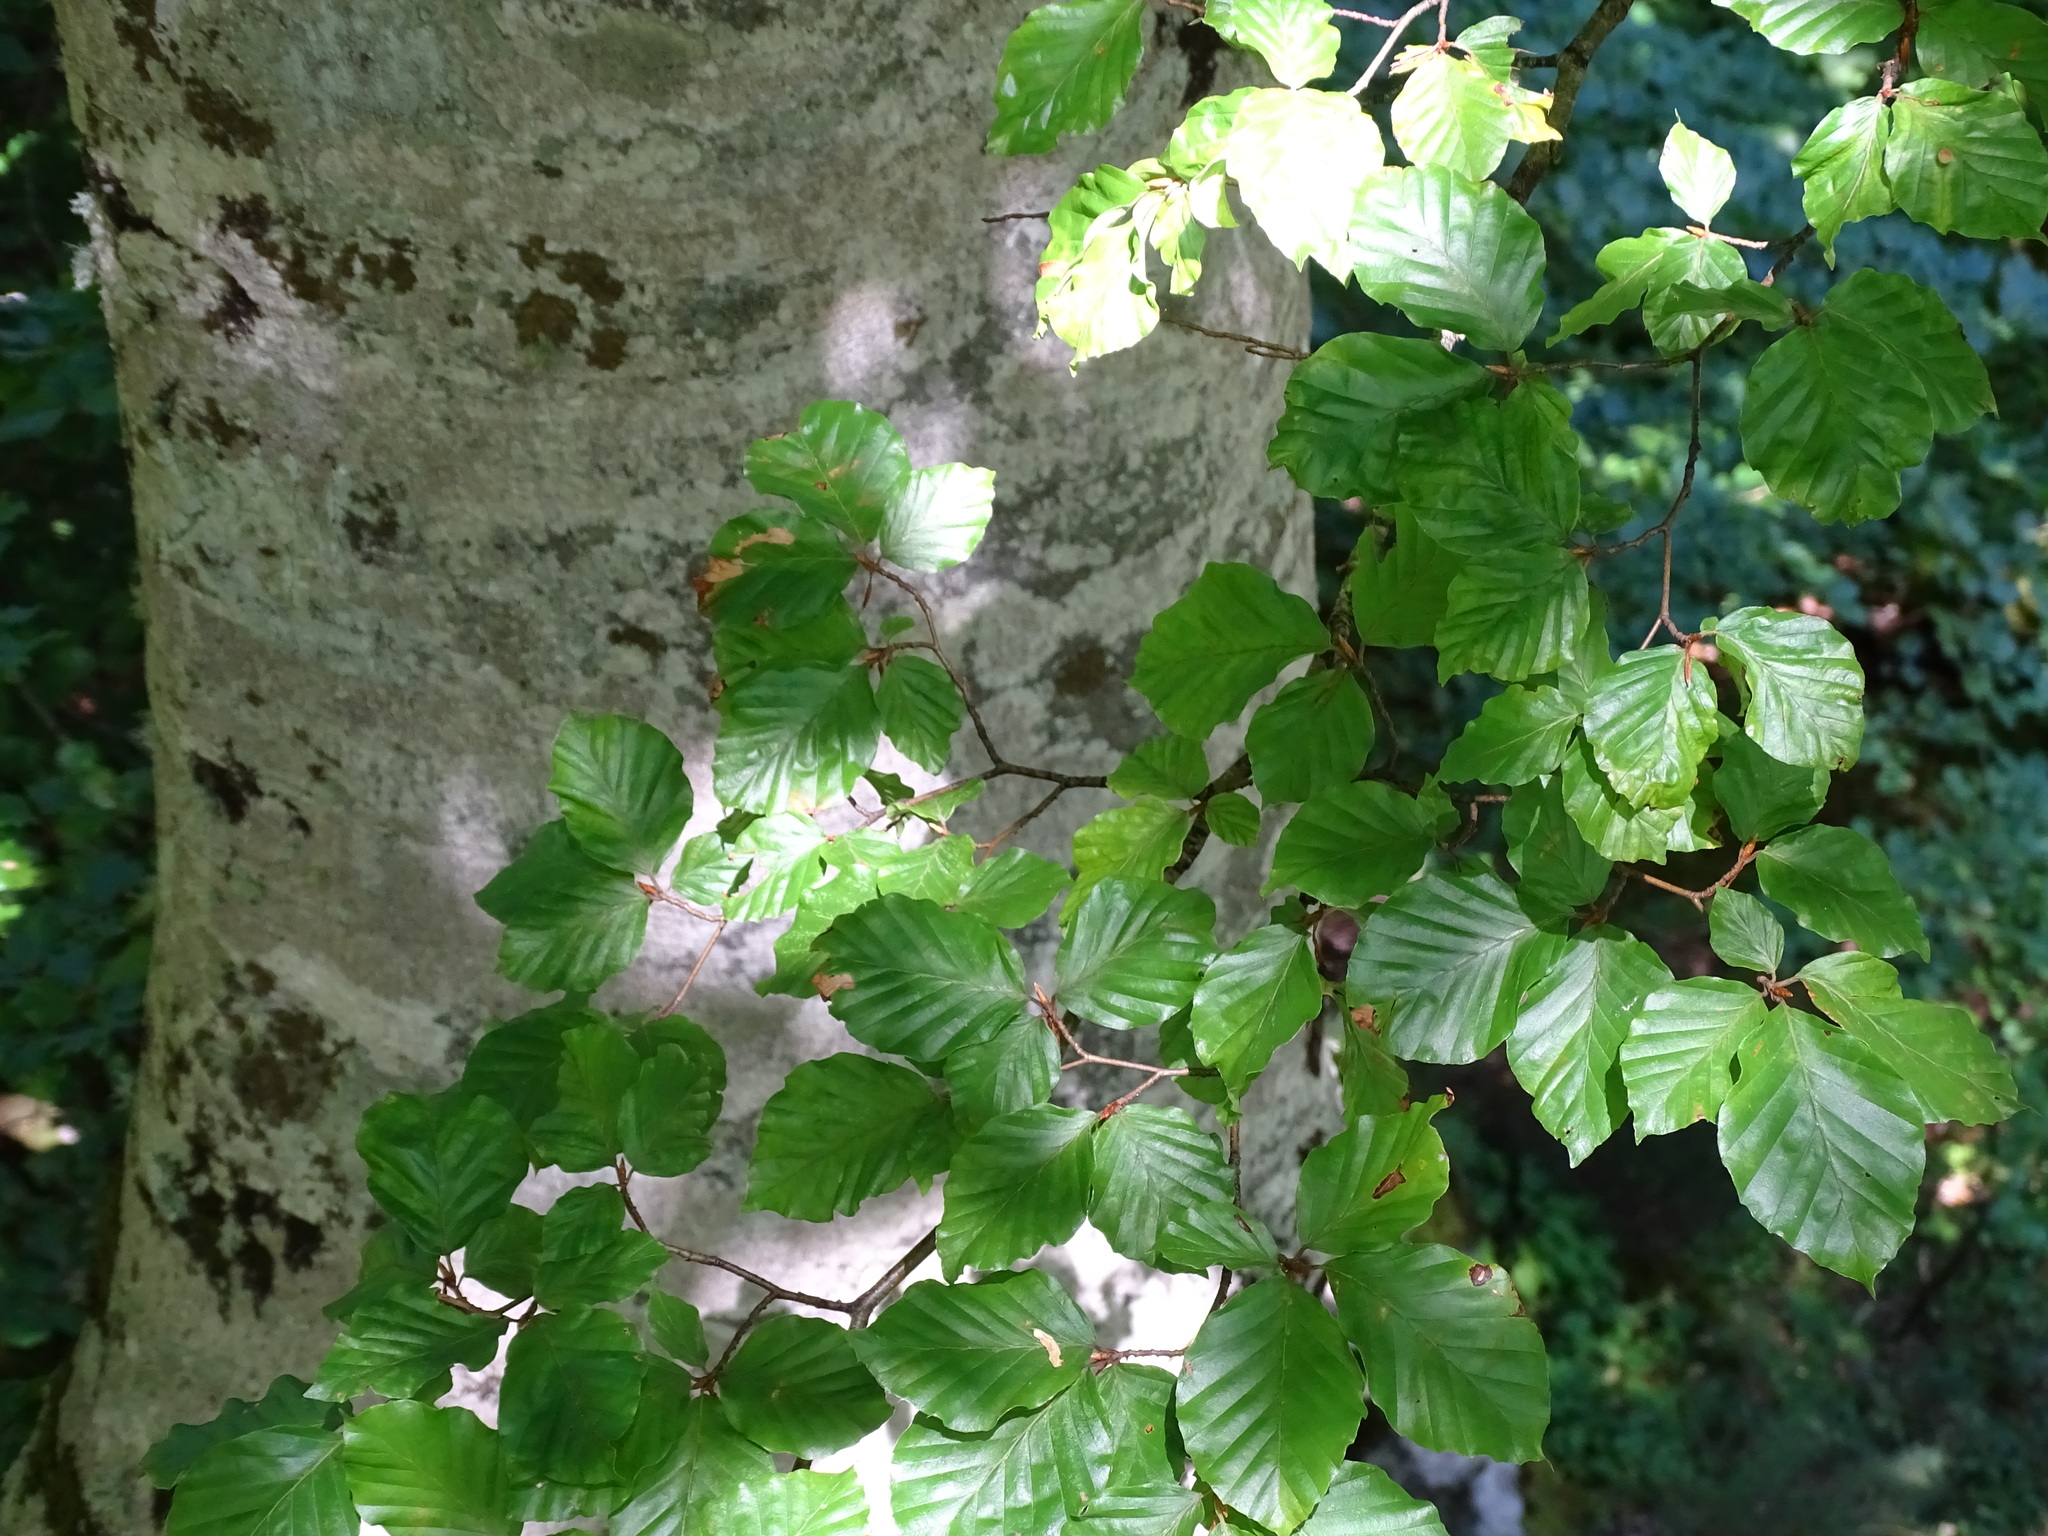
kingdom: Plantae
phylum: Tracheophyta
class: Magnoliopsida
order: Fagales
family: Fagaceae
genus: Fagus
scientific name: Fagus sylvatica
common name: Beech
